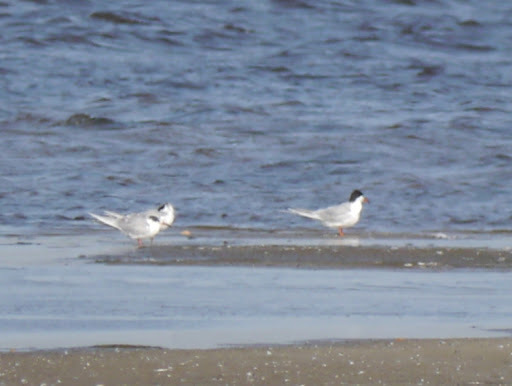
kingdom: Animalia
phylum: Chordata
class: Aves
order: Charadriiformes
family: Laridae
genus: Sterna
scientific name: Sterna forsteri
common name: Forster's tern
